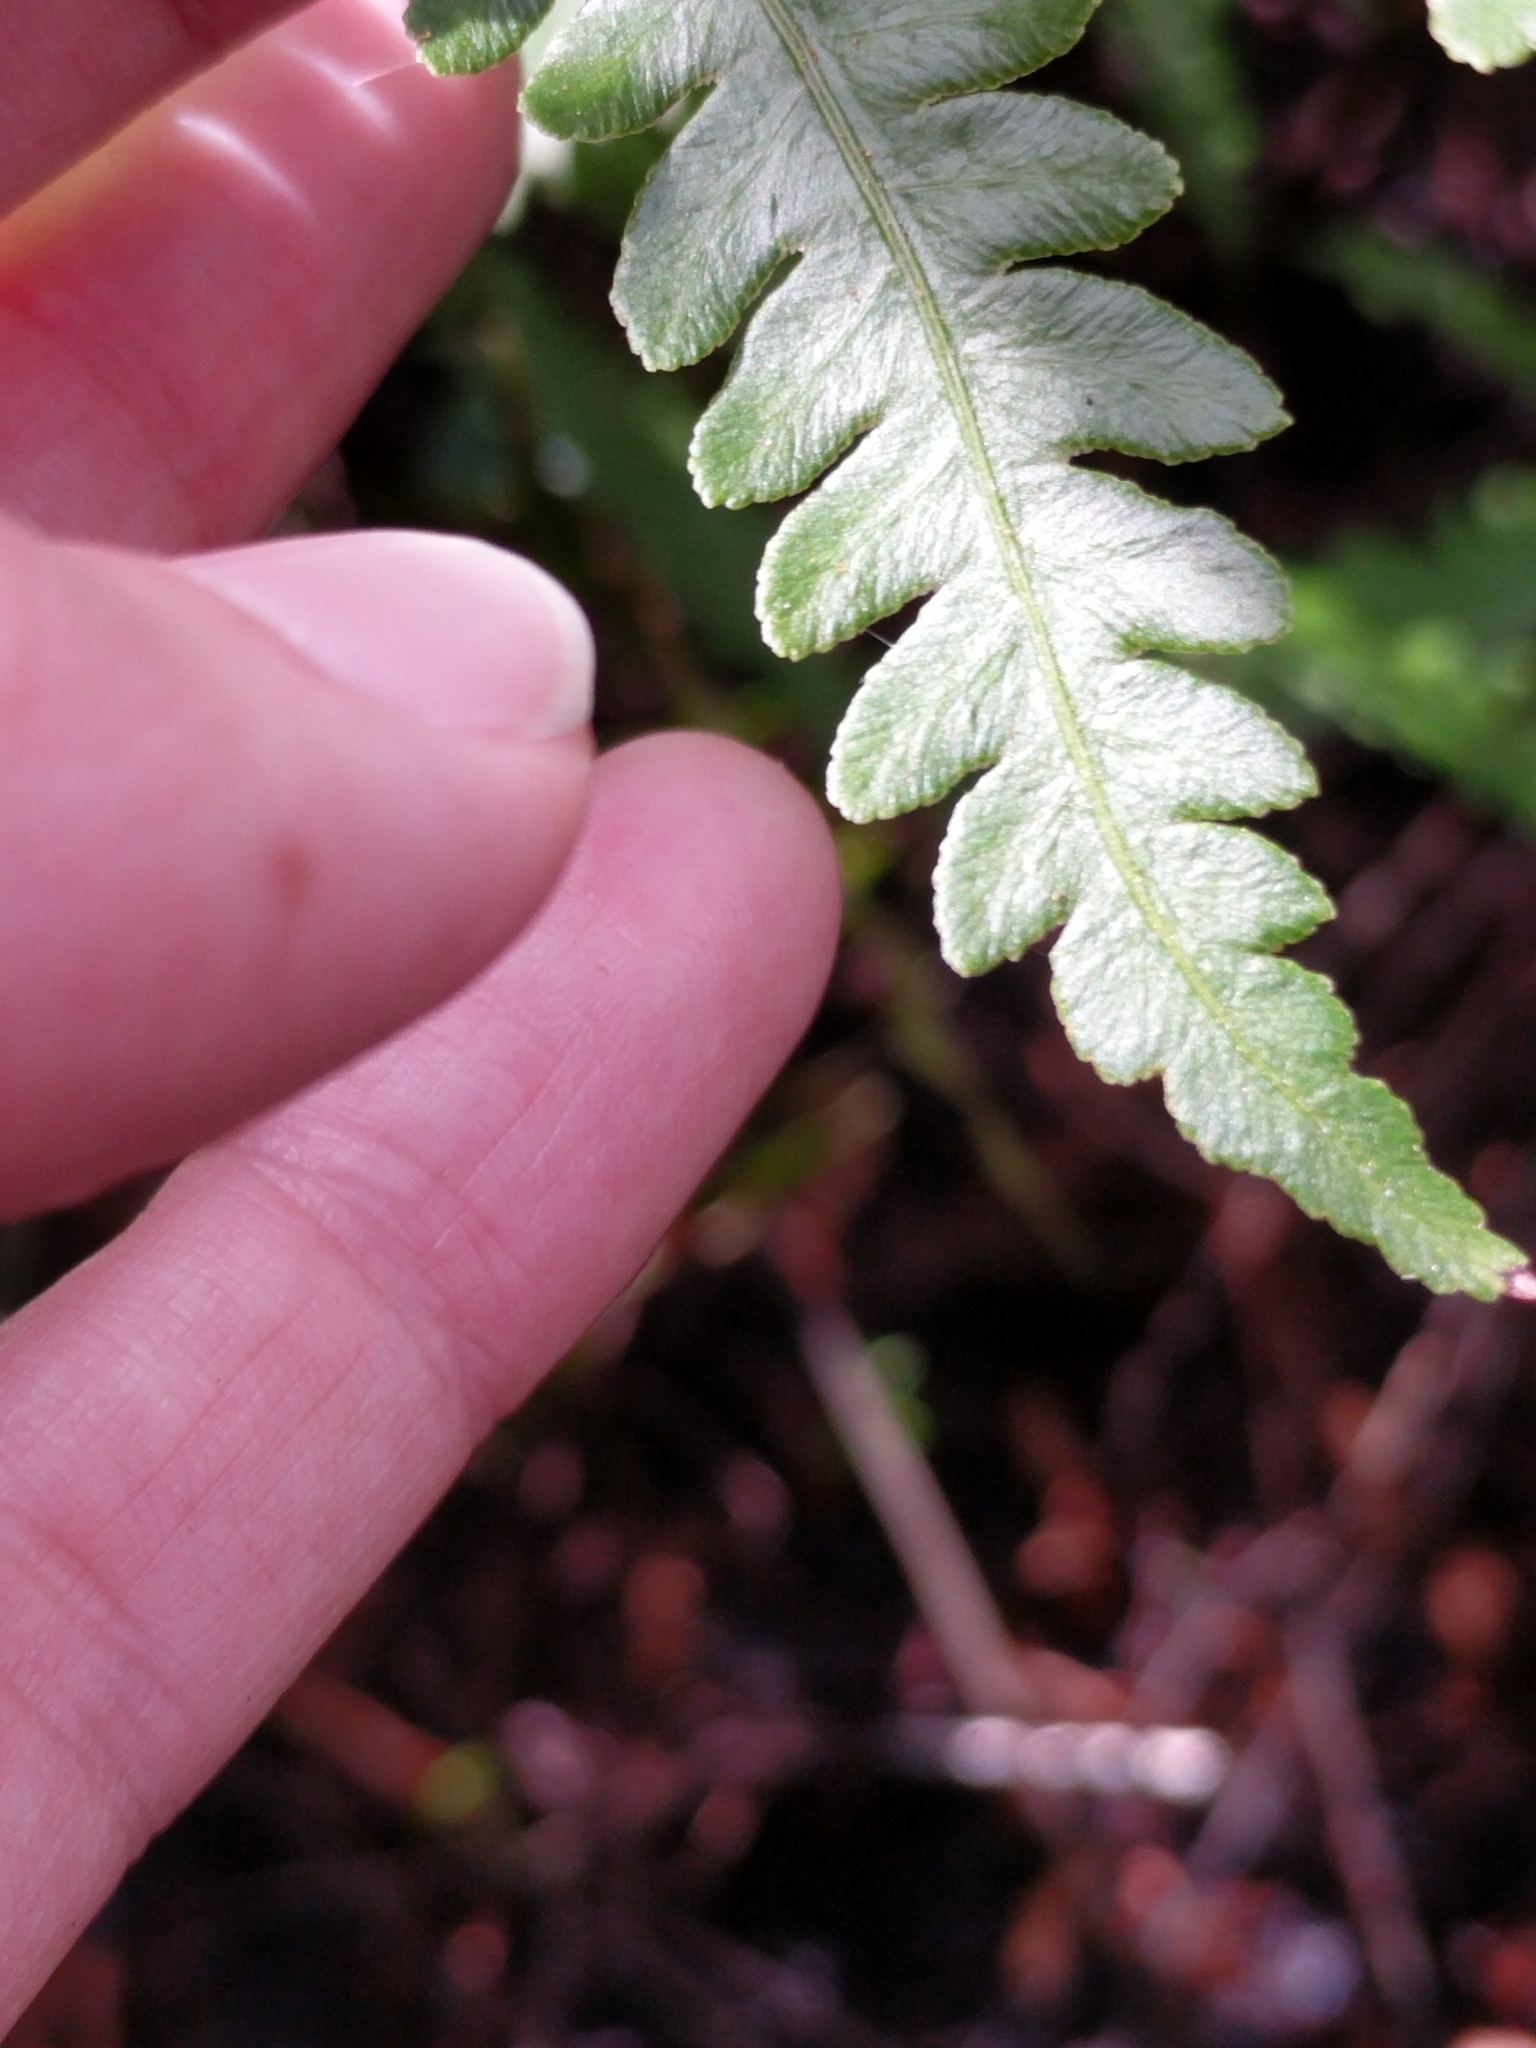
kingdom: Plantae
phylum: Tracheophyta
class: Polypodiopsida
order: Polypodiales
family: Blechnaceae
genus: Anchistea
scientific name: Anchistea virginica
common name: Virginia chain fern
